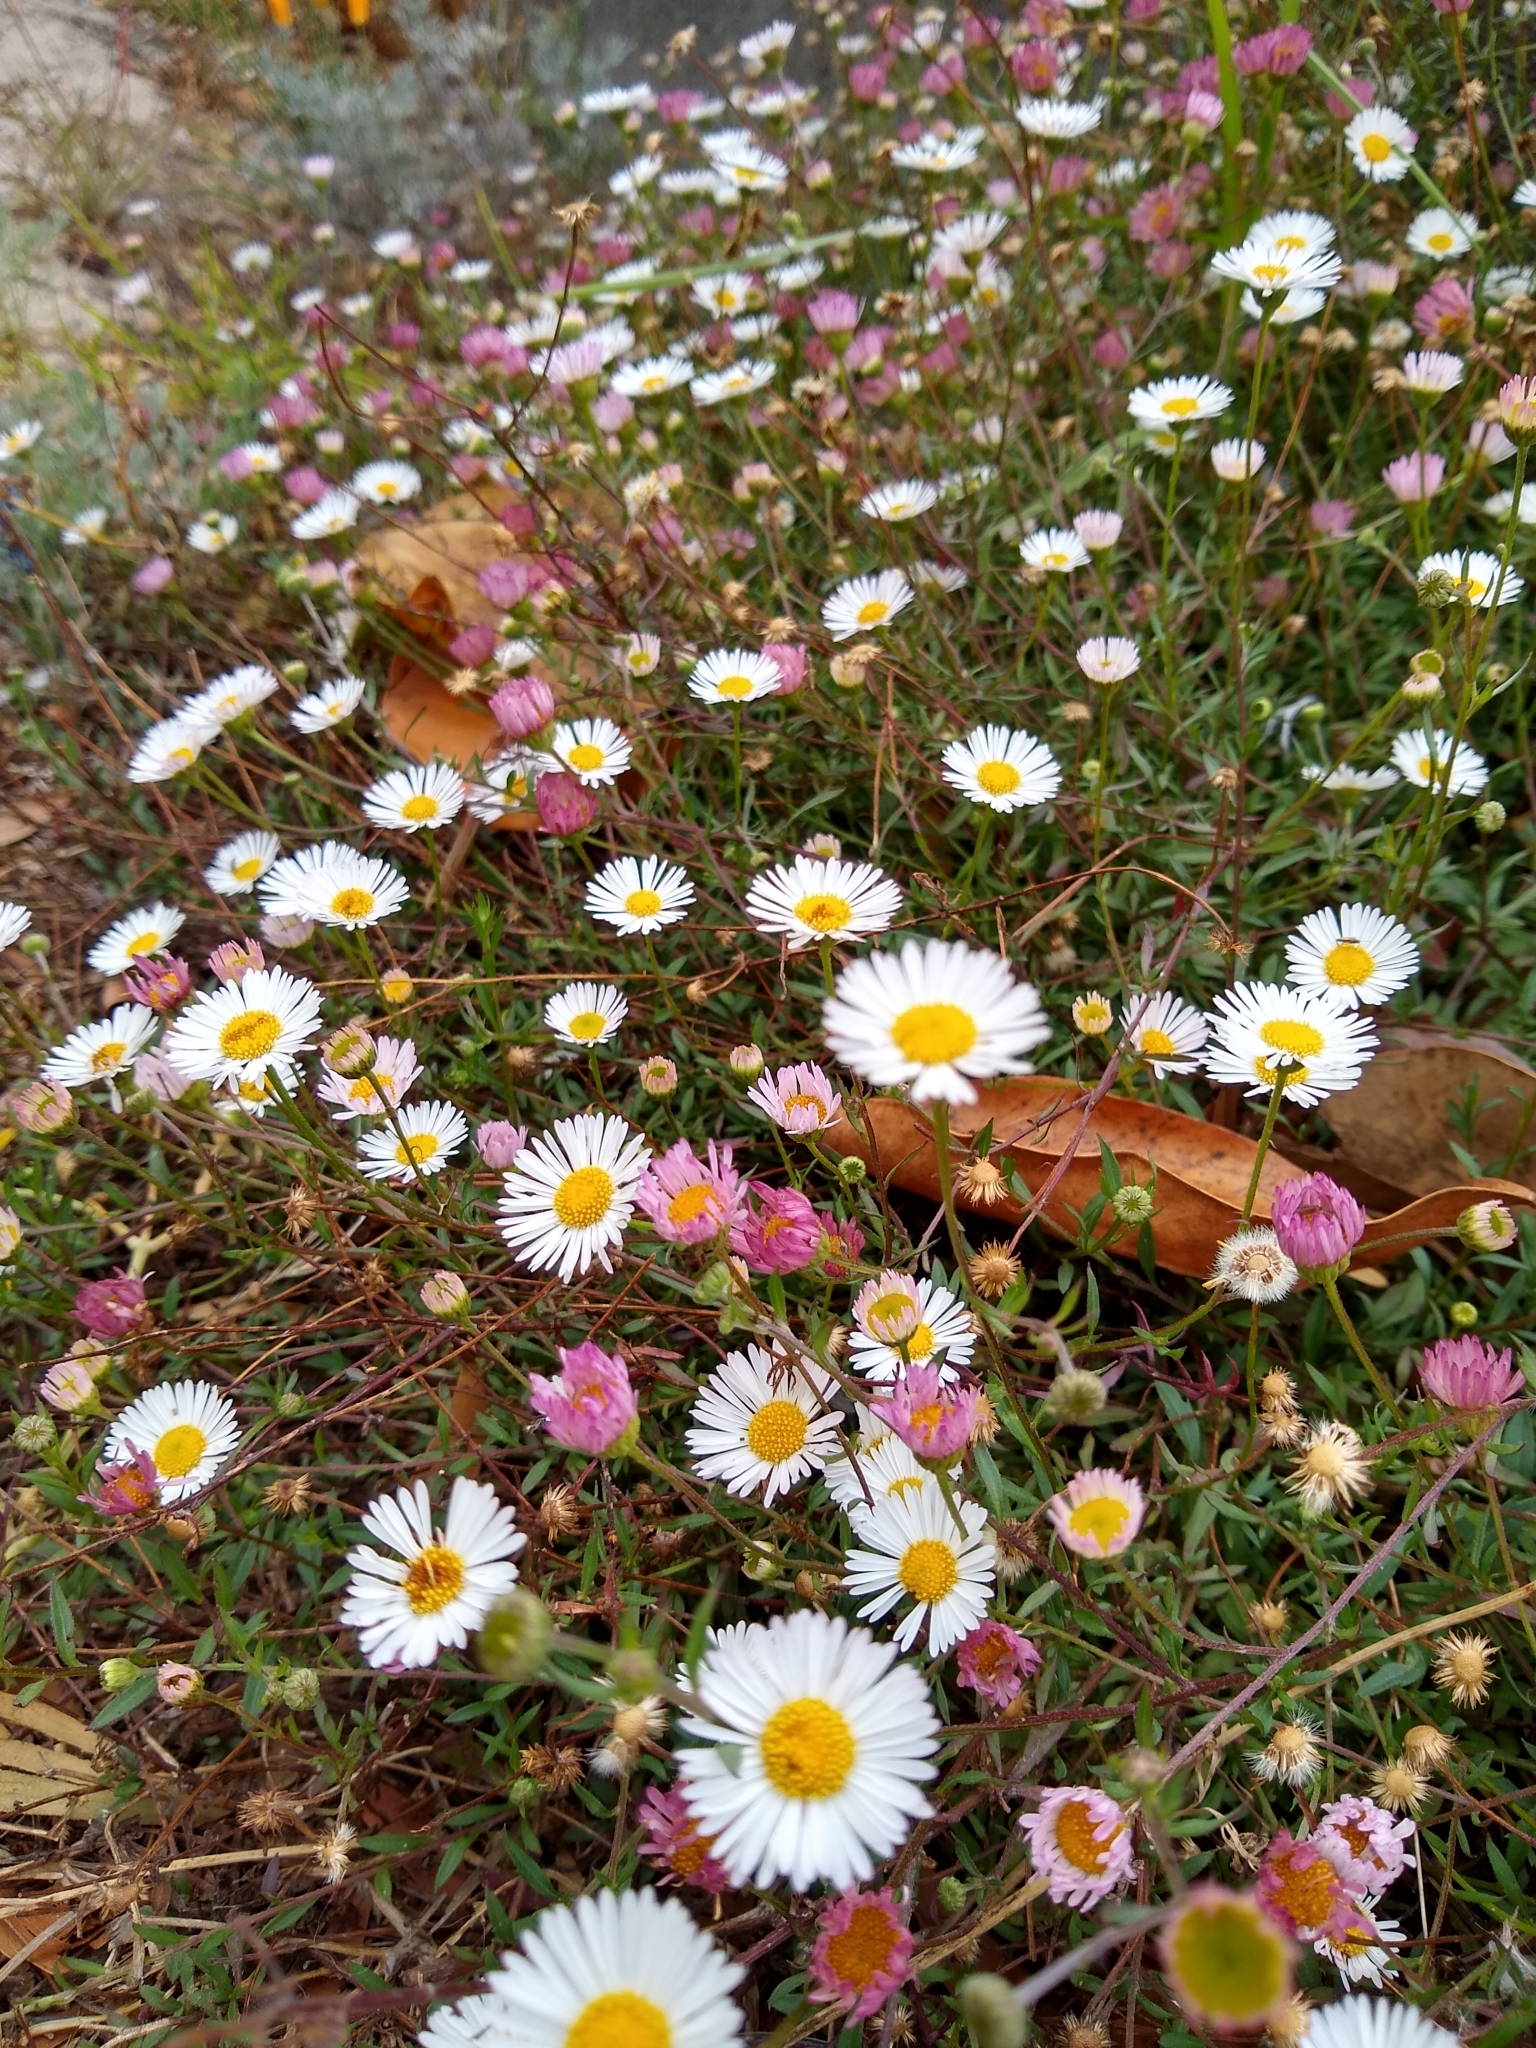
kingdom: Plantae
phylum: Tracheophyta
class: Magnoliopsida
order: Asterales
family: Asteraceae
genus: Erigeron
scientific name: Erigeron karvinskianus
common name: Mexican fleabane
